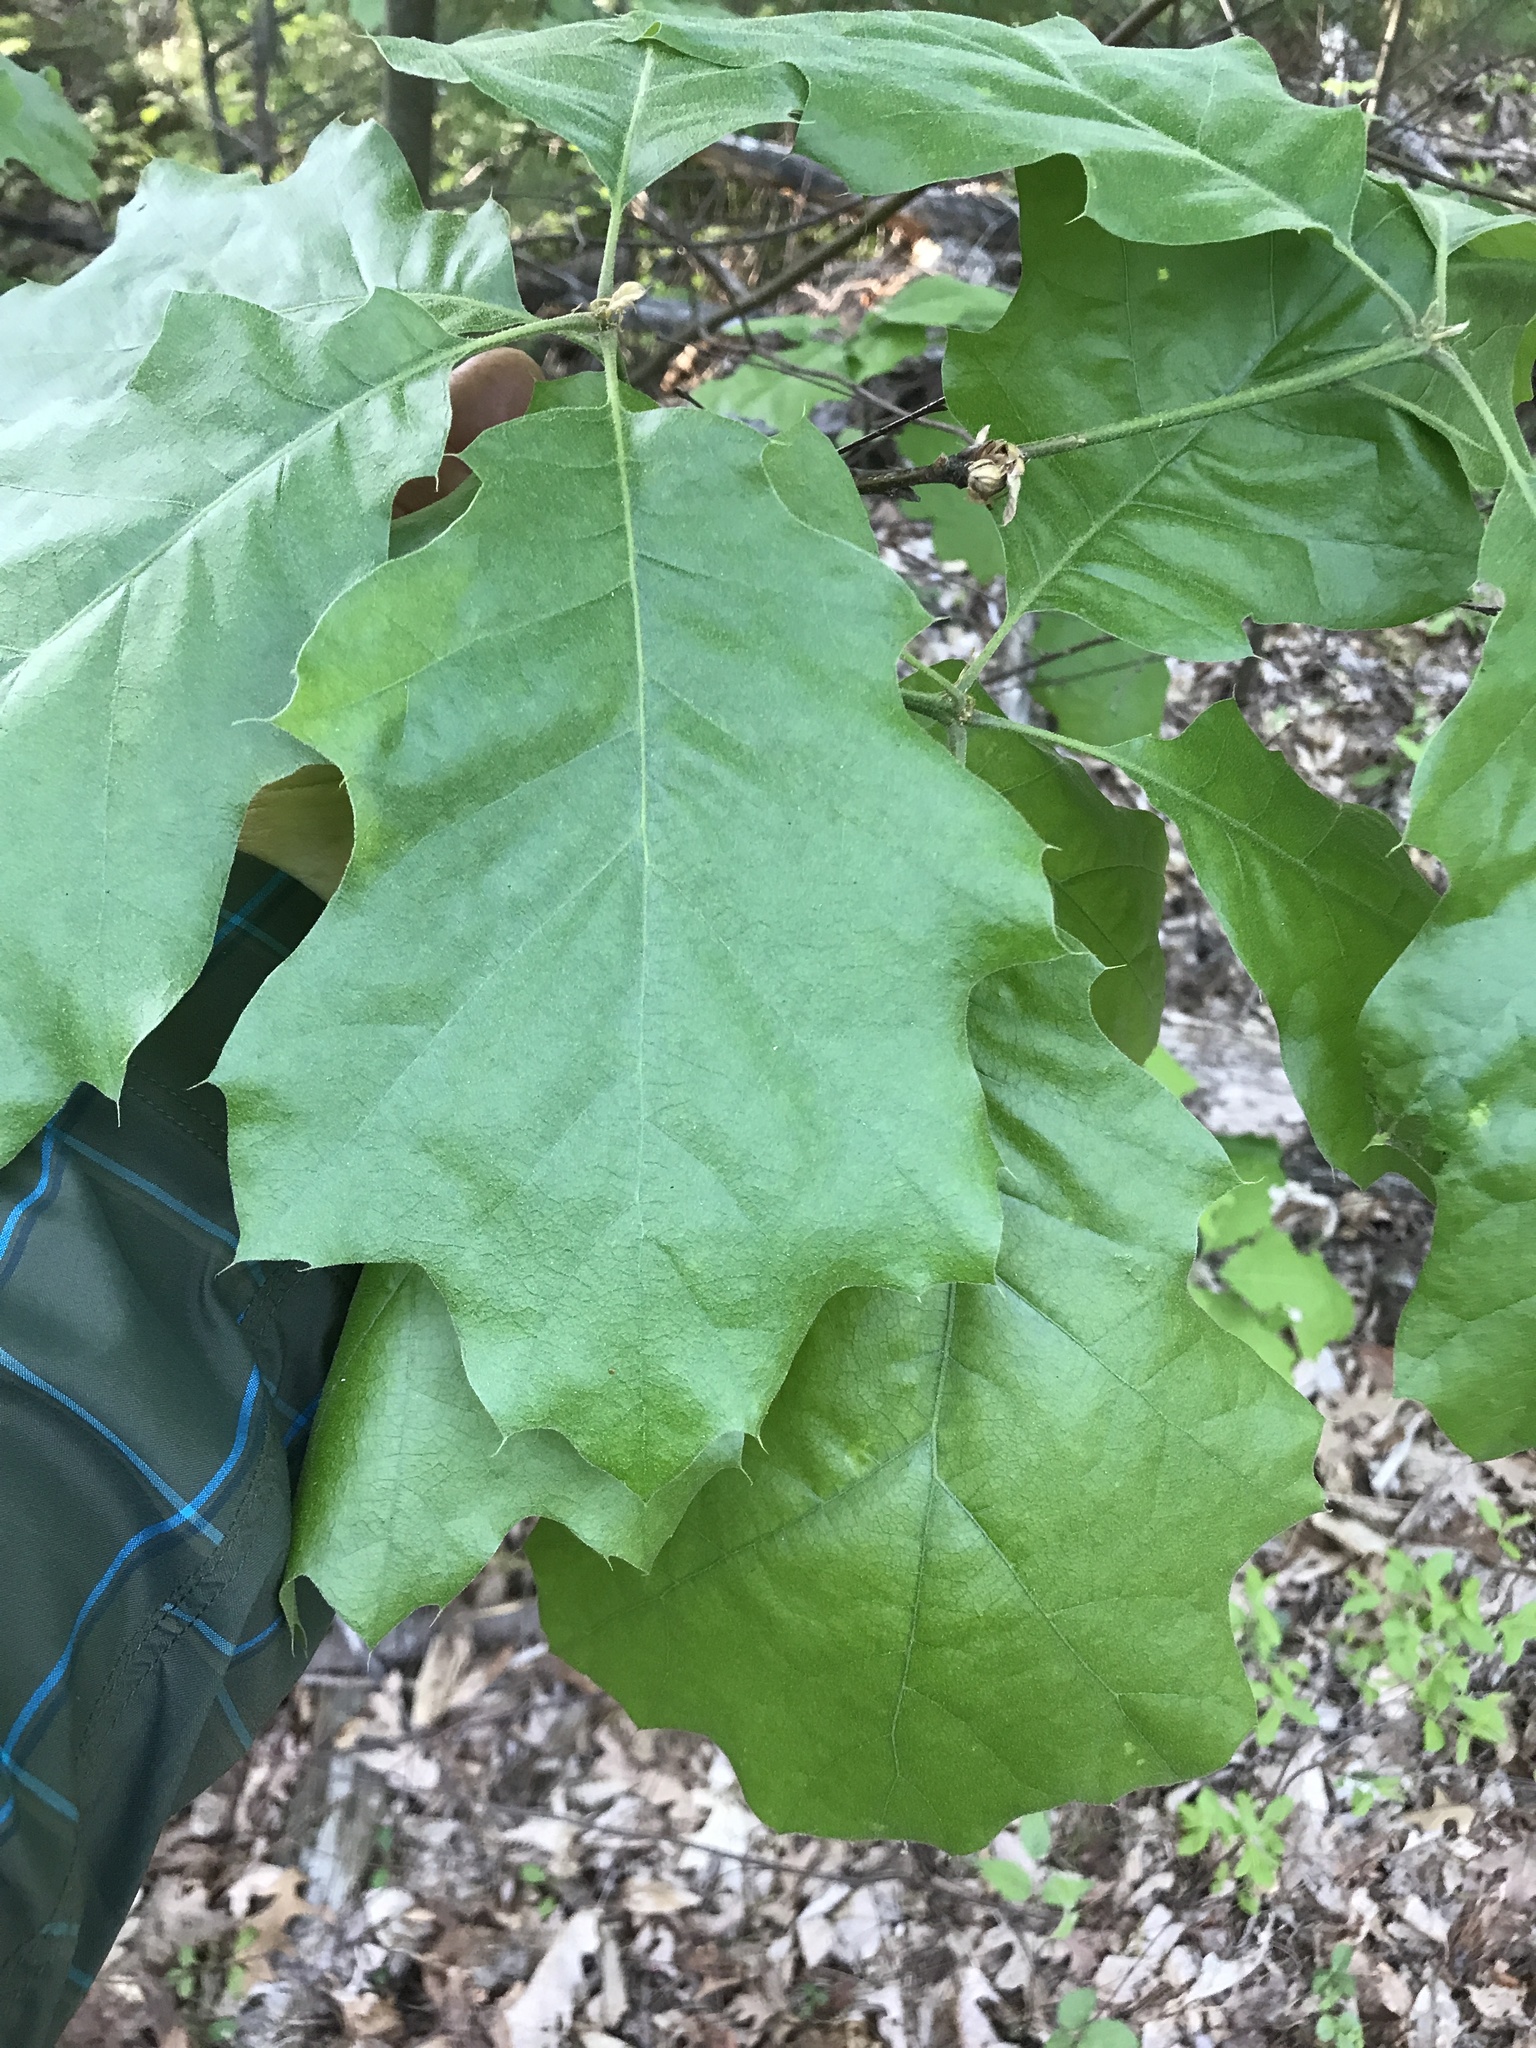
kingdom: Plantae
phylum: Tracheophyta
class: Magnoliopsida
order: Fagales
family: Fagaceae
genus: Quercus
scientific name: Quercus velutina
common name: Black oak
